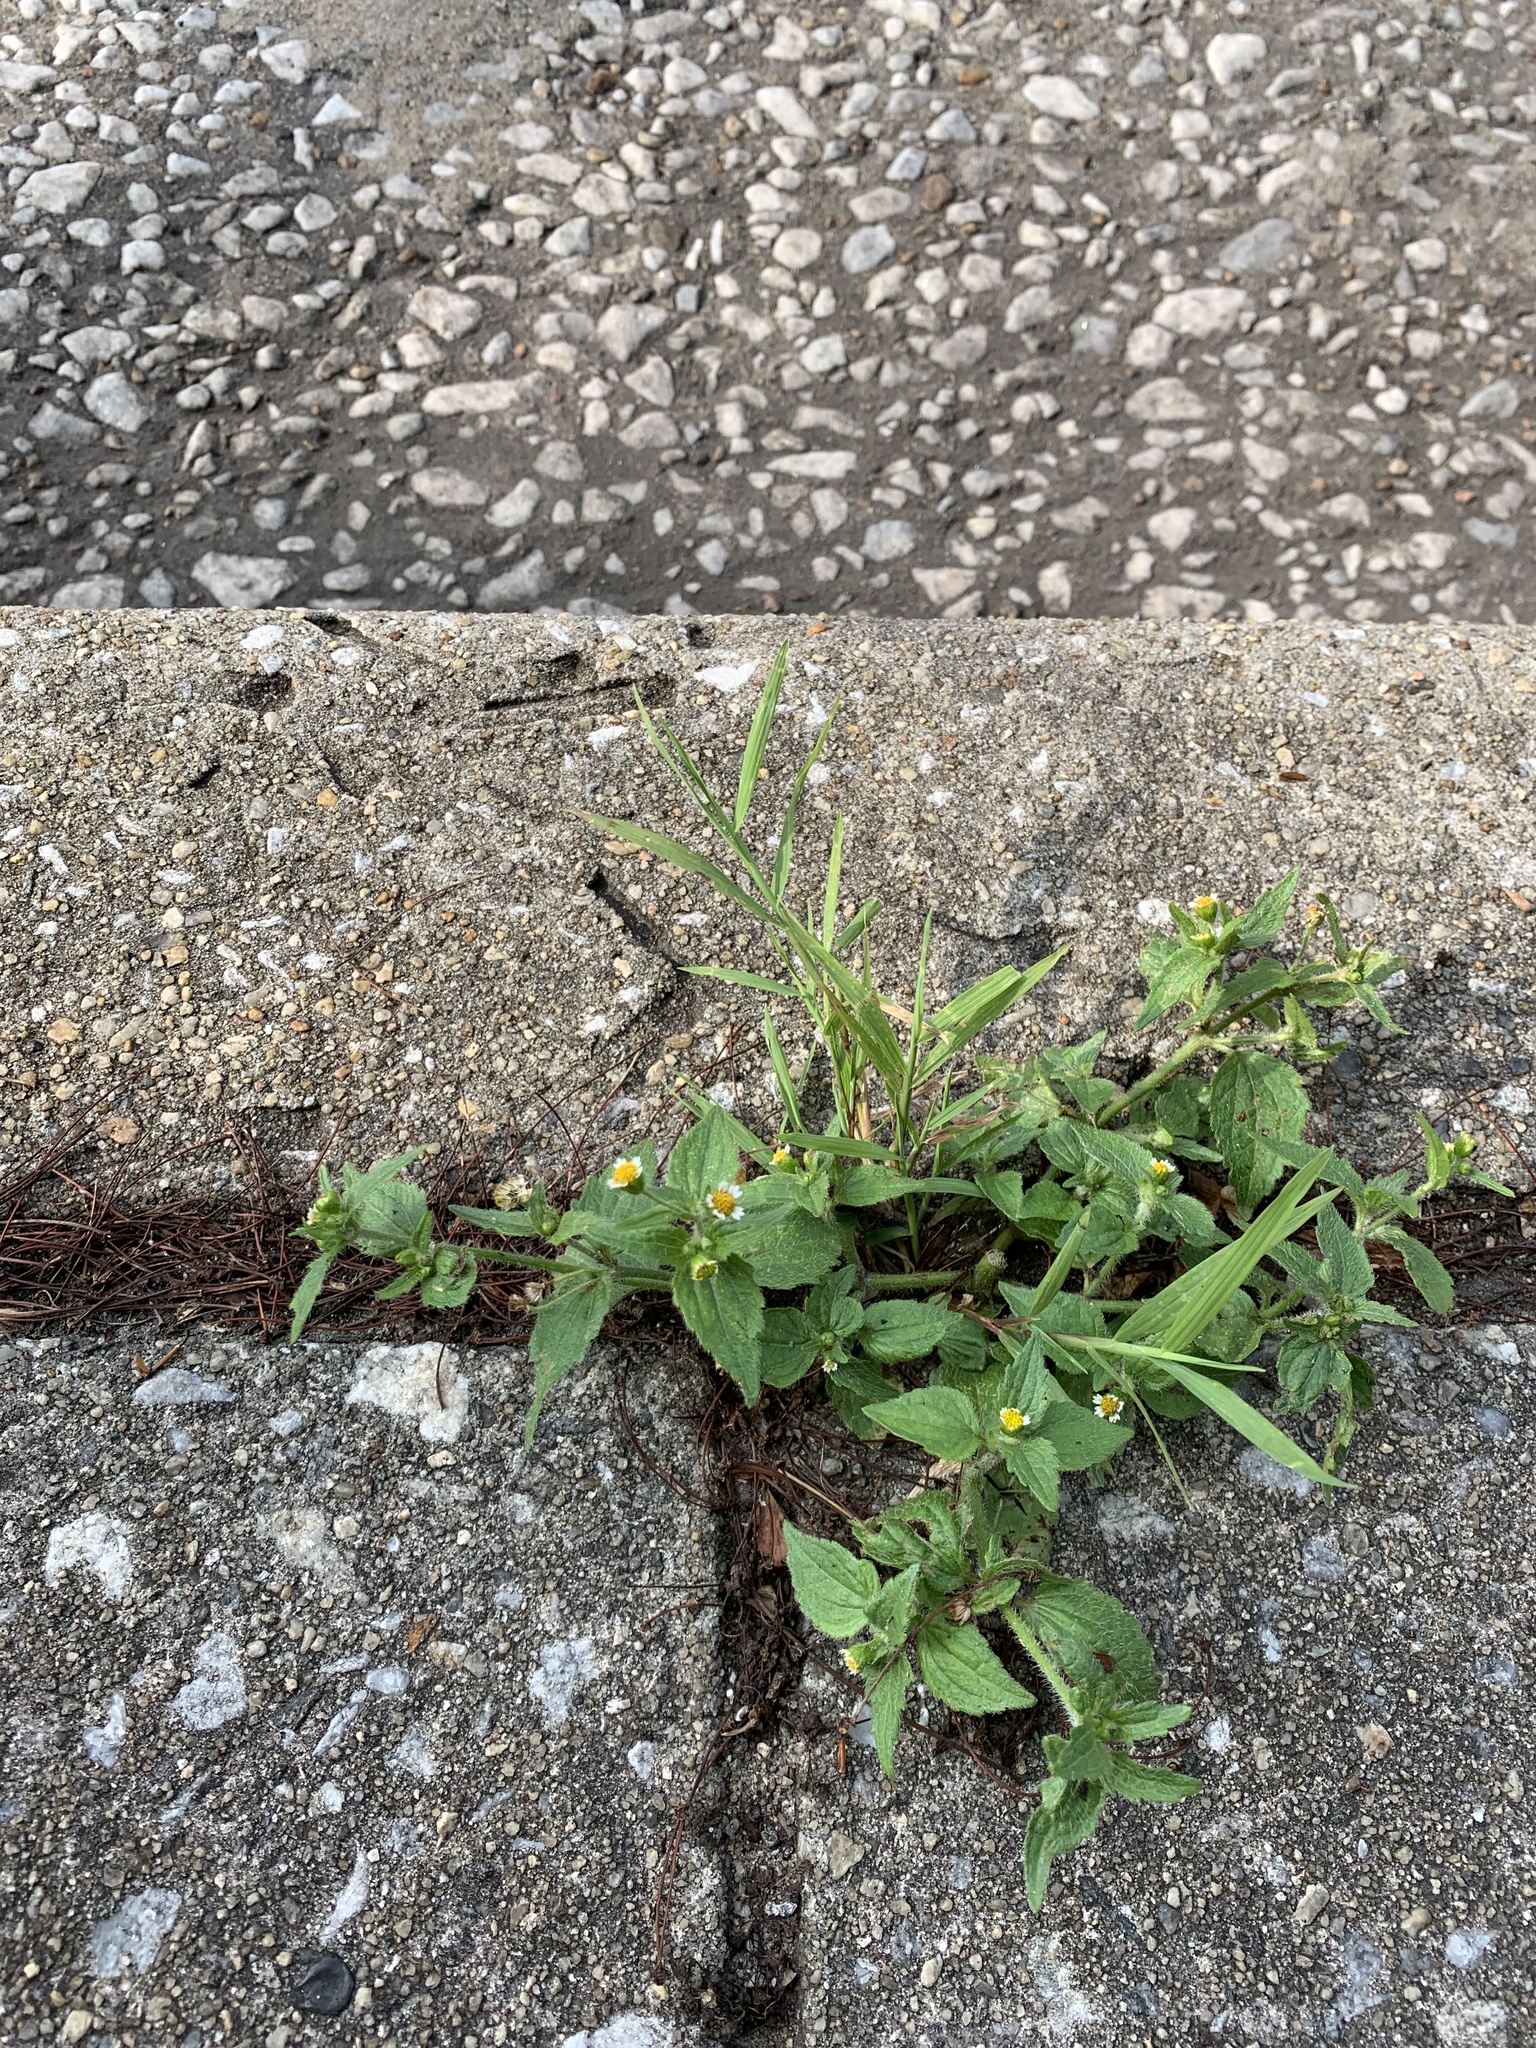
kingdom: Plantae
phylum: Tracheophyta
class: Magnoliopsida
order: Asterales
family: Asteraceae
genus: Galinsoga
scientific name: Galinsoga quadriradiata
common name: Shaggy soldier
